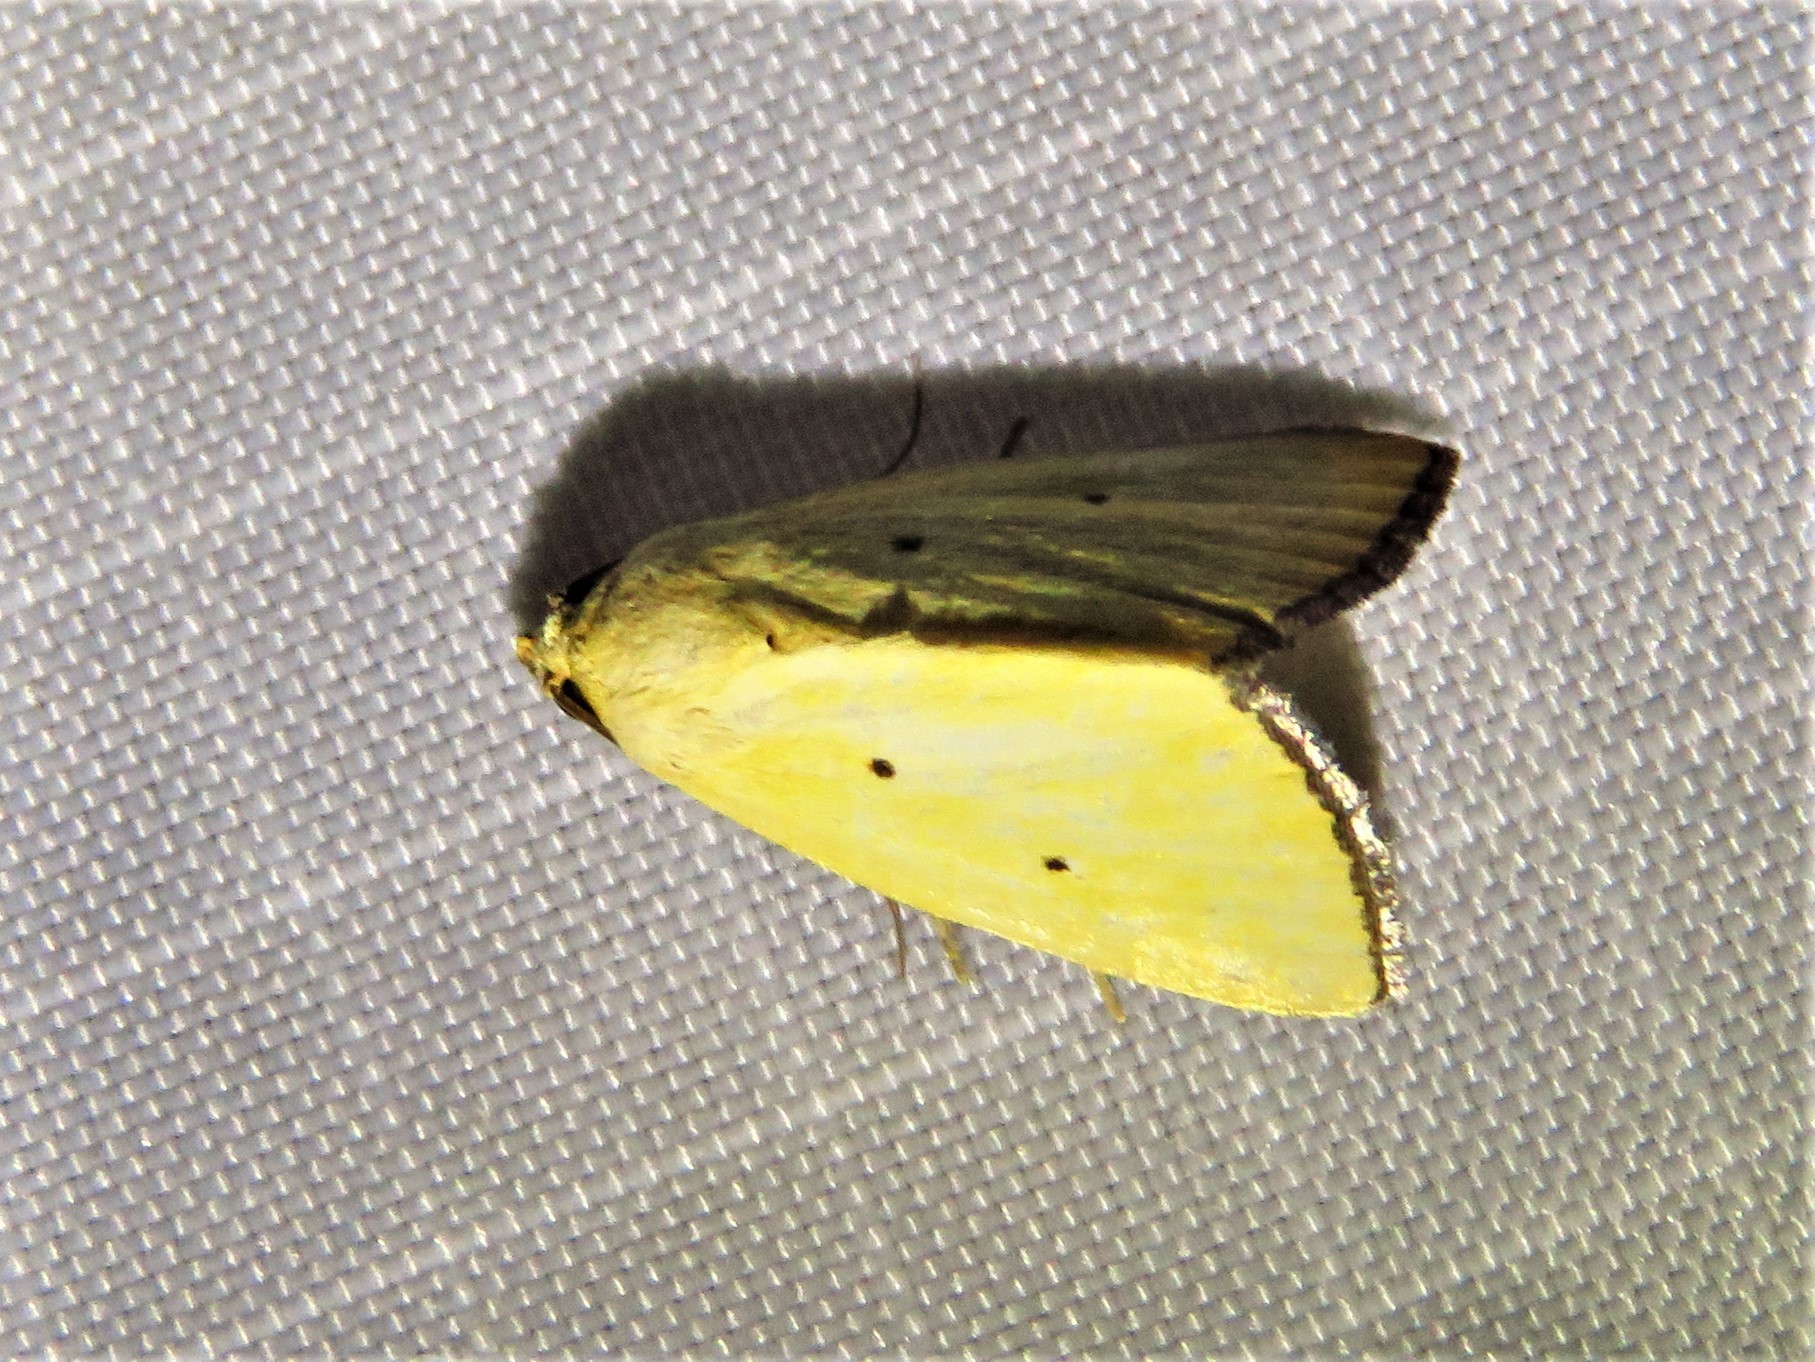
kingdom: Animalia
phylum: Arthropoda
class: Insecta
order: Lepidoptera
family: Noctuidae
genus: Marimatha
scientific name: Marimatha nigrofimbria
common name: Black-bordered lemon moth
